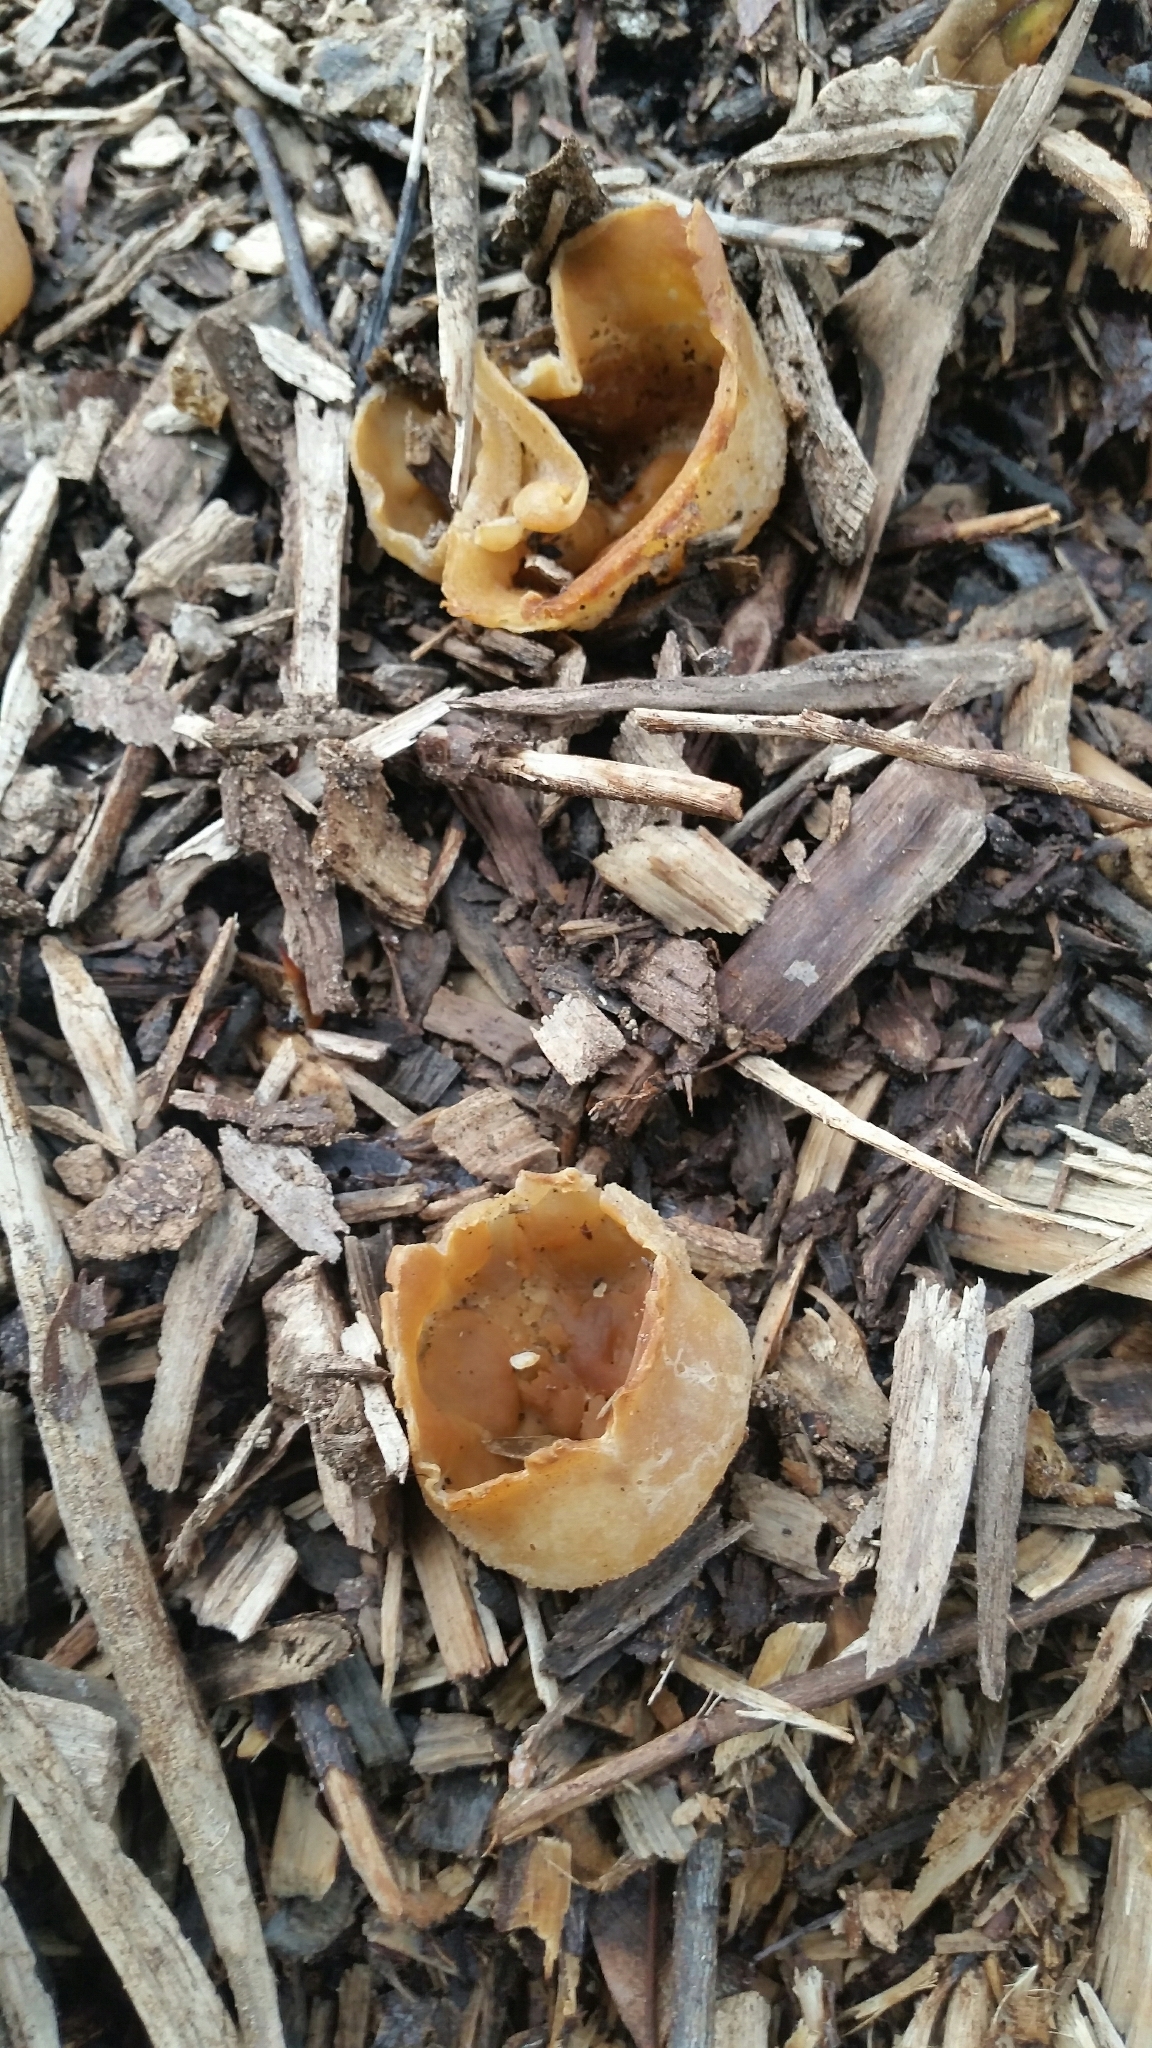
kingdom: Fungi
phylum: Ascomycota
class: Pezizomycetes
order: Pezizales
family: Pezizaceae
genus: Peziza
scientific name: Peziza
